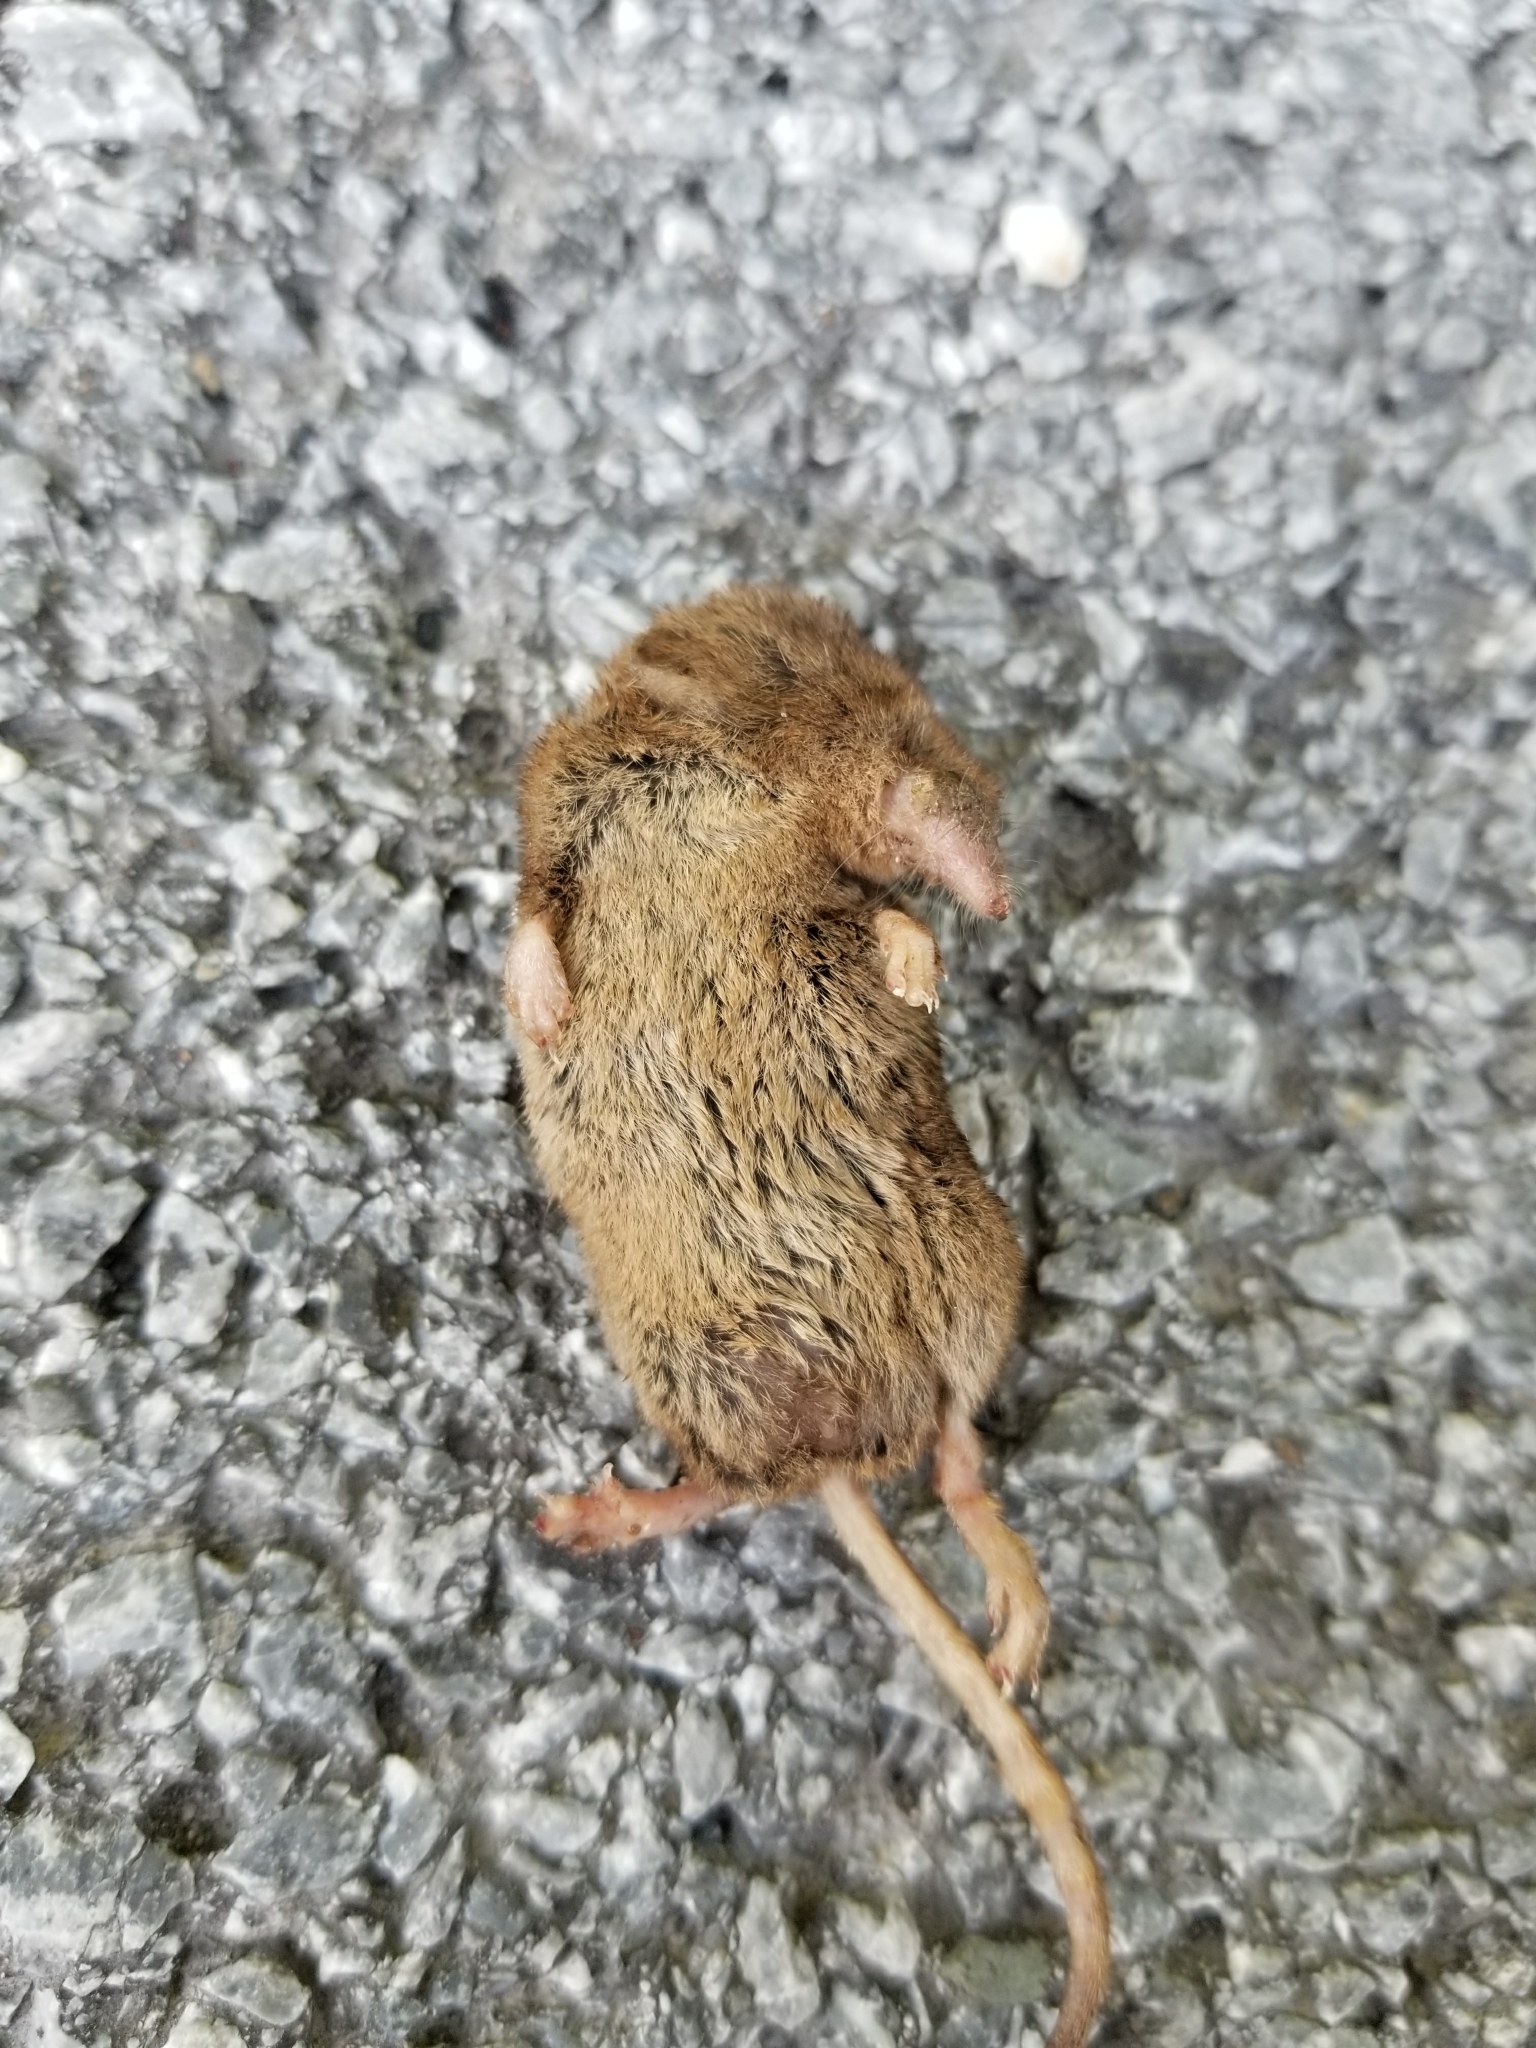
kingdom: Animalia
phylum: Chordata
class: Mammalia
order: Soricomorpha
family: Soricidae
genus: Sorex
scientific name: Sorex cinereus
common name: Cinereus shrew
